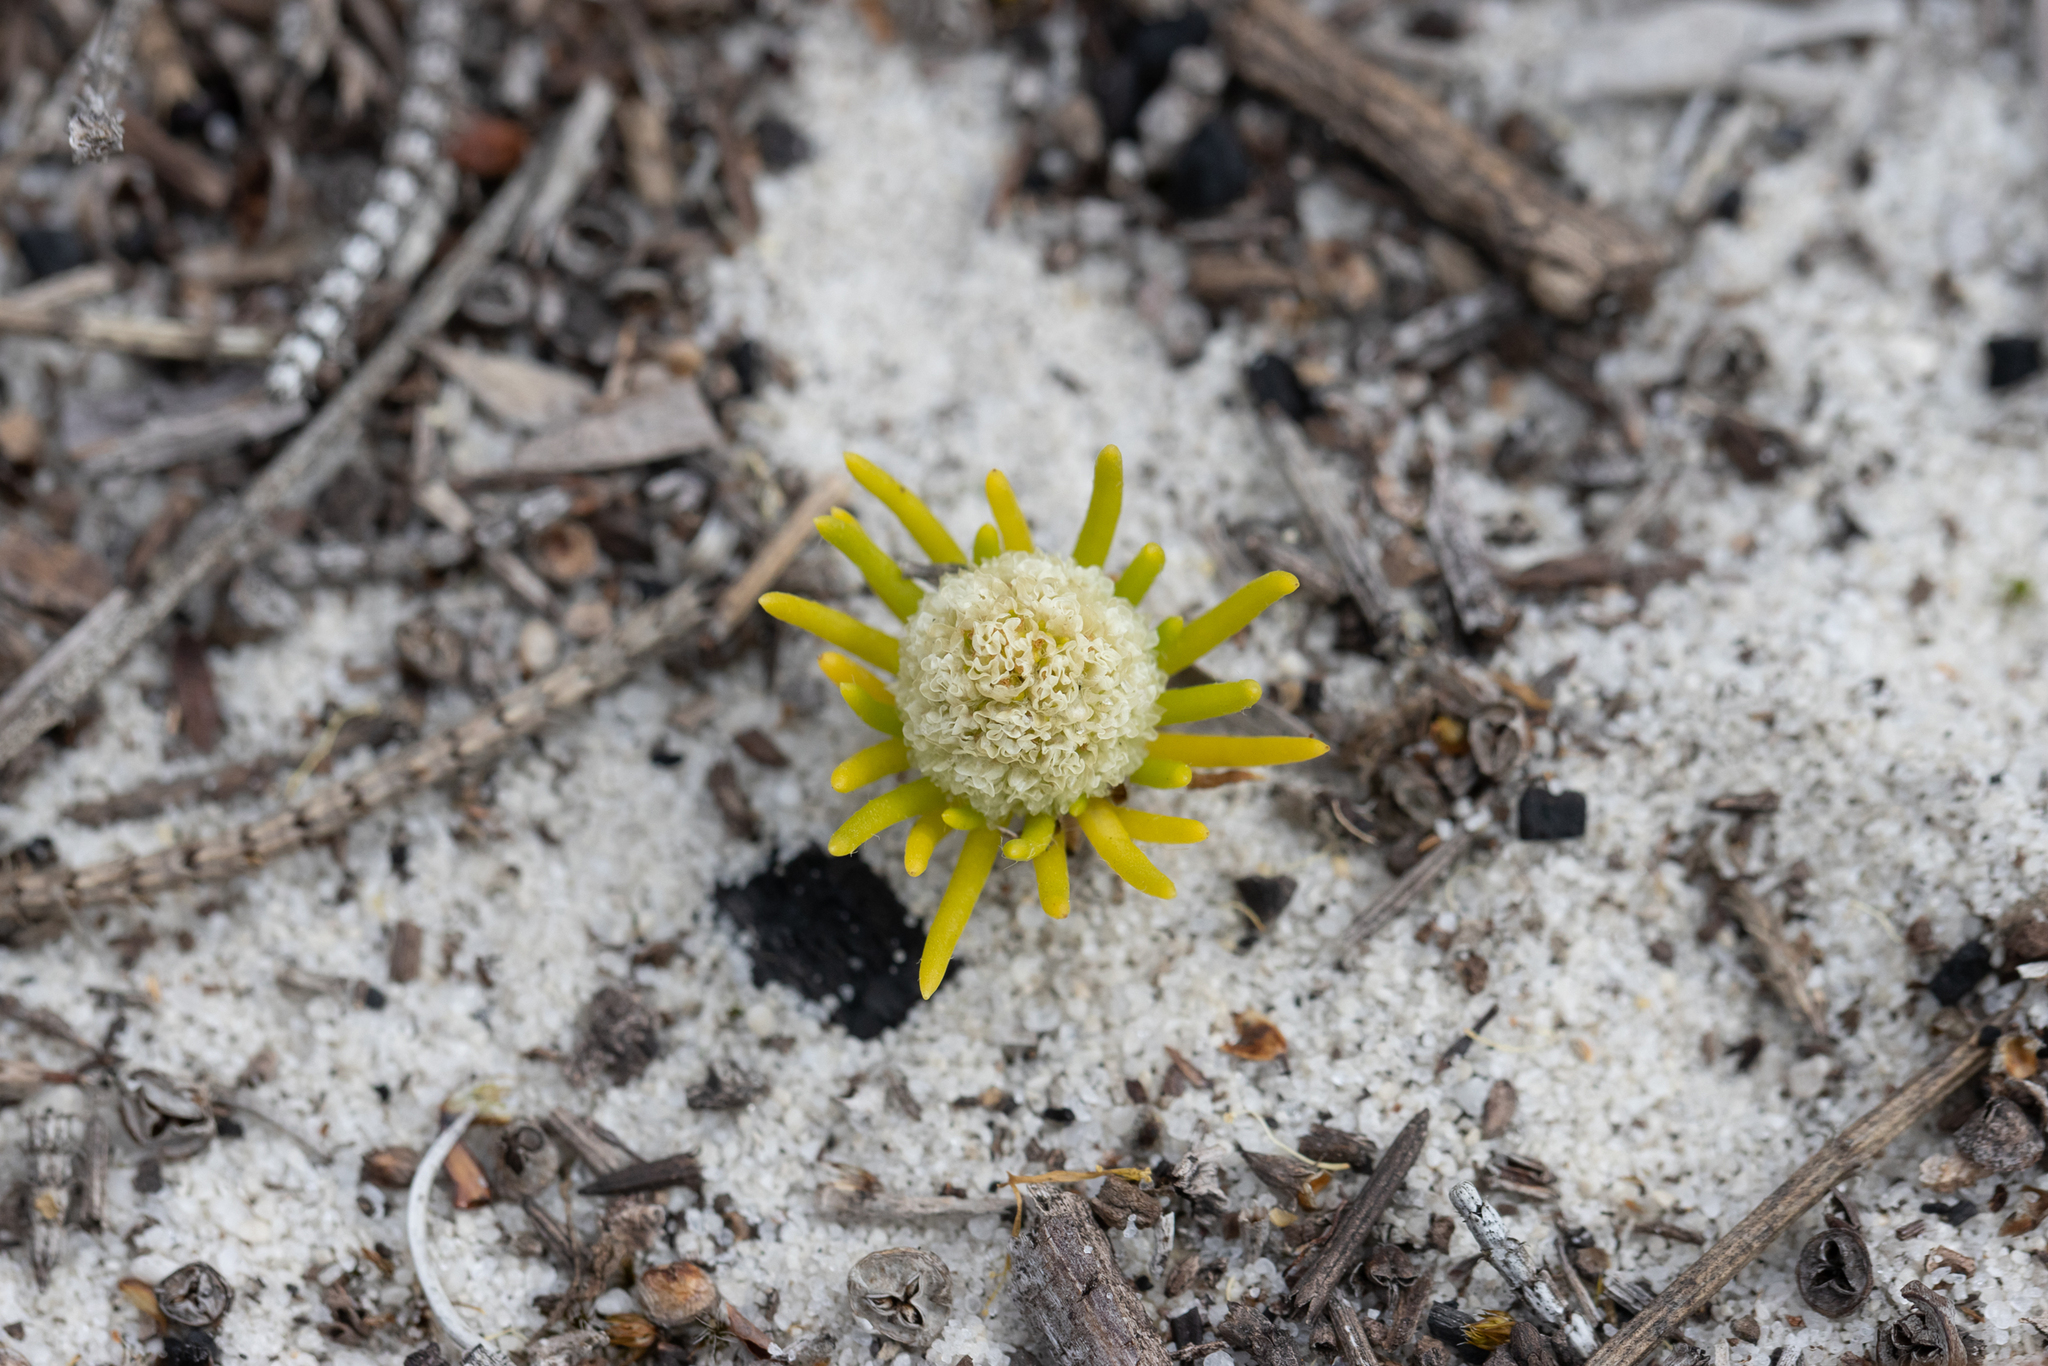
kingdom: Plantae
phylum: Tracheophyta
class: Magnoliopsida
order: Asterales
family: Asteraceae
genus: Siloxerus
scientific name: Siloxerus humifusus
